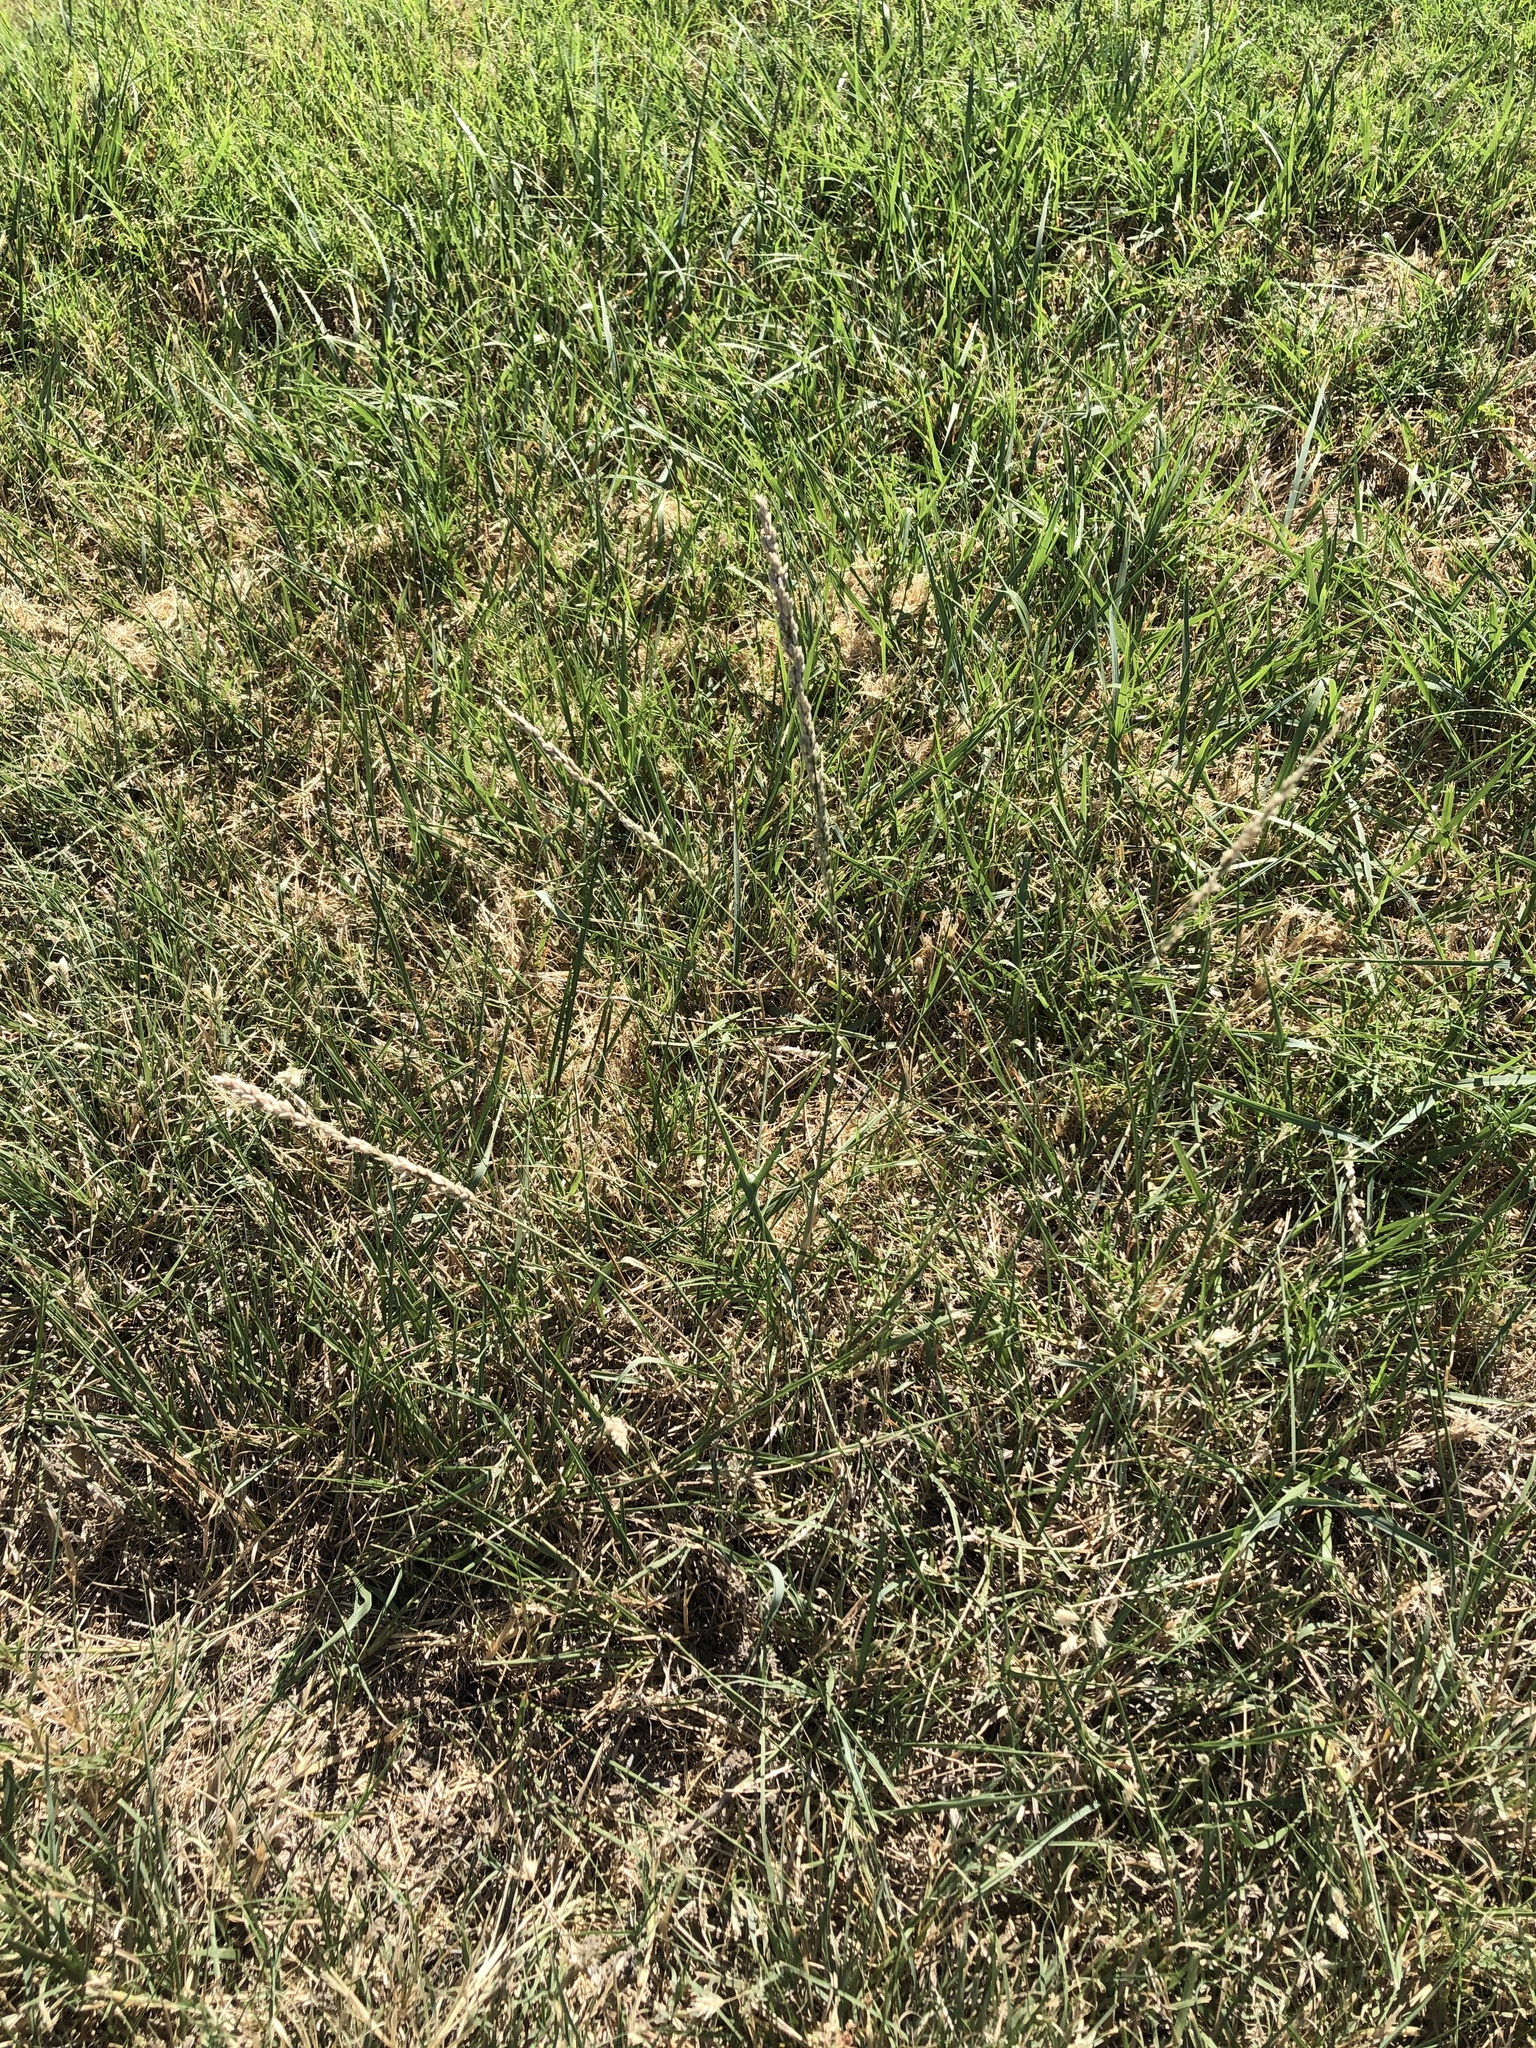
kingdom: Plantae
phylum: Tracheophyta
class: Liliopsida
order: Poales
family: Poaceae
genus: Tridens
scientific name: Tridens albescens
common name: White tridens
